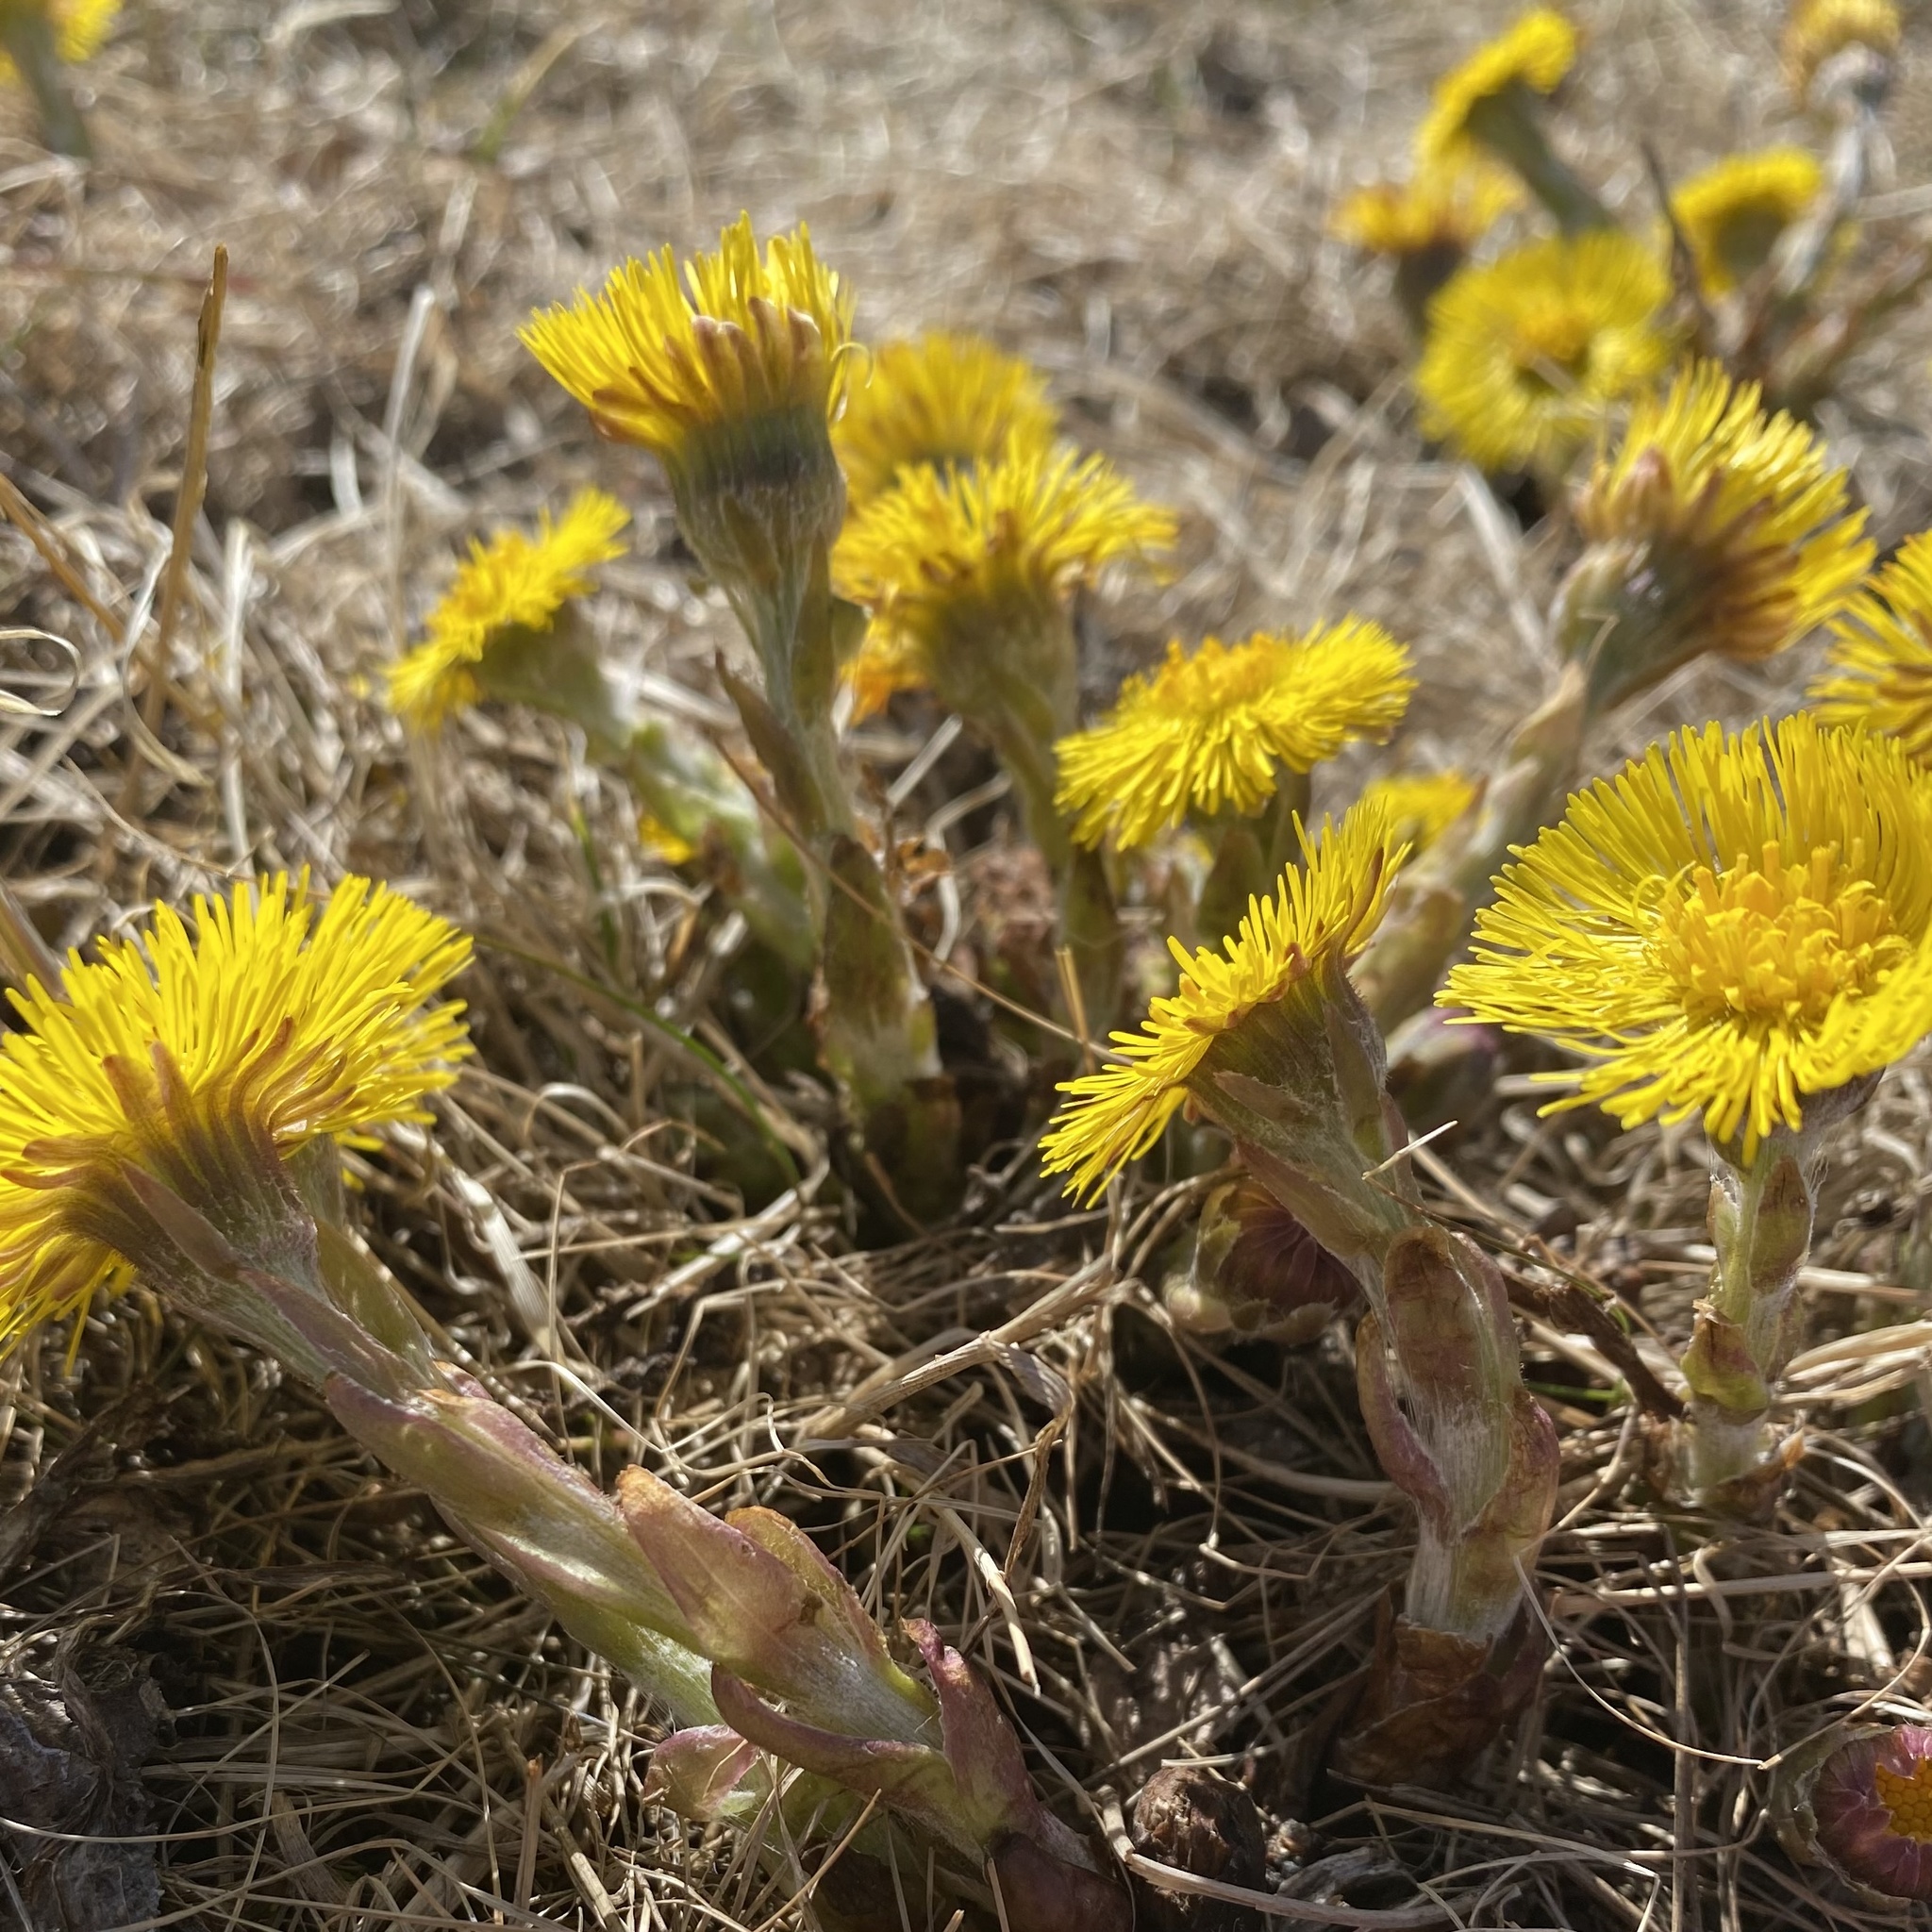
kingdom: Plantae
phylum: Tracheophyta
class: Magnoliopsida
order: Asterales
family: Asteraceae
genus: Tussilago
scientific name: Tussilago farfara
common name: Coltsfoot
